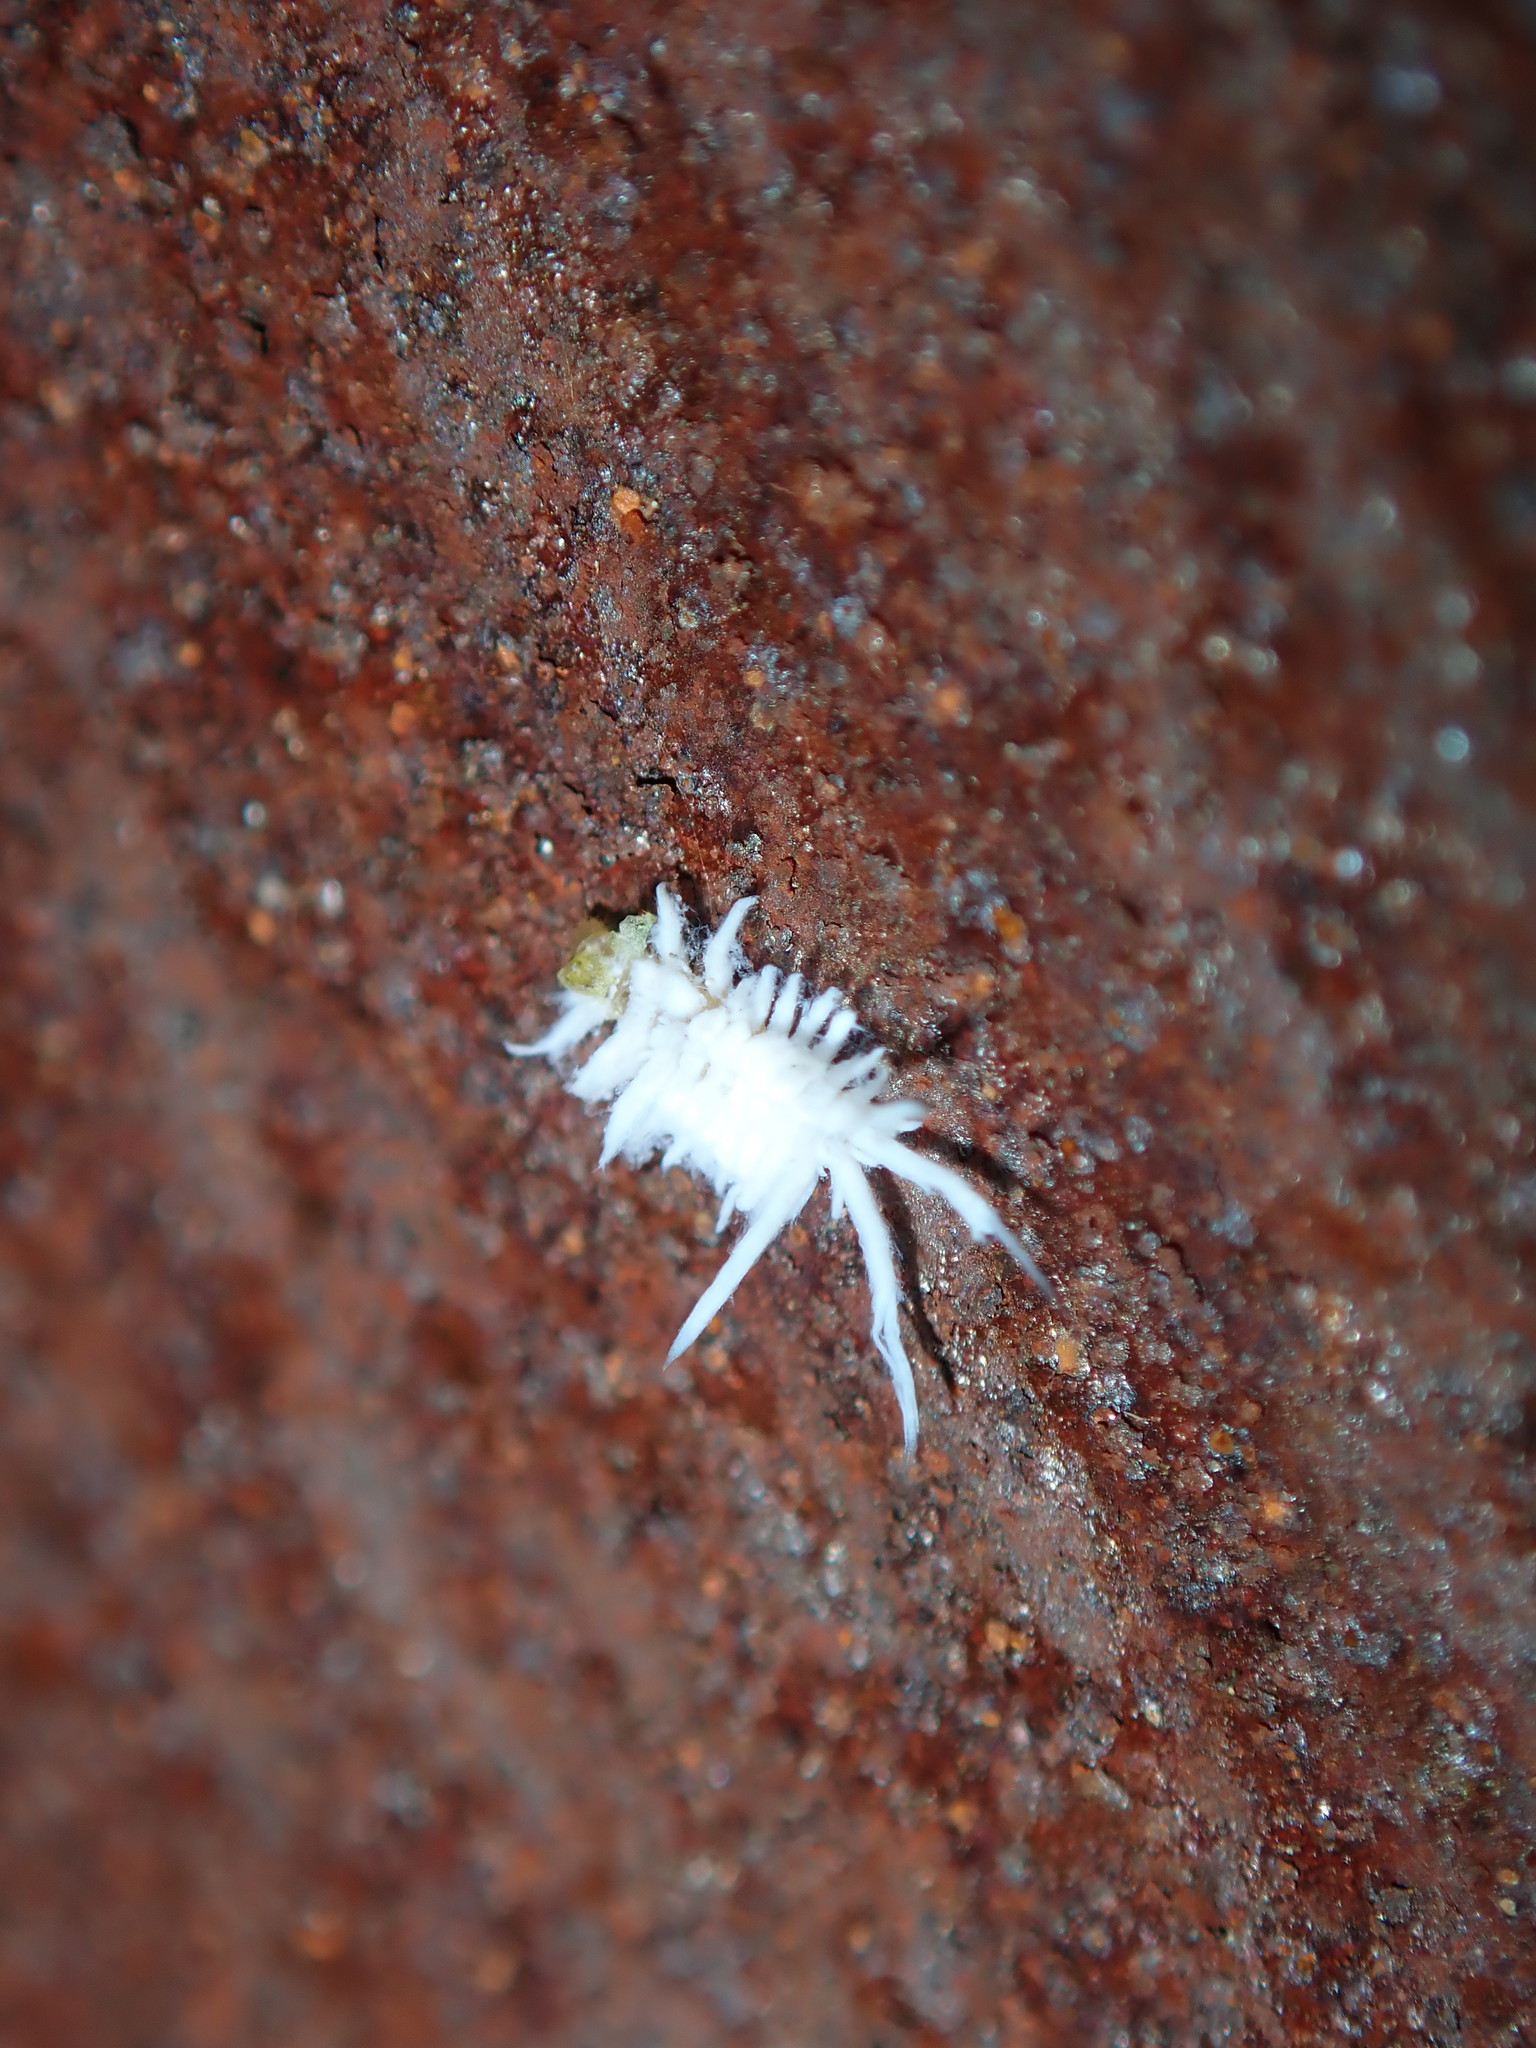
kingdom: Animalia
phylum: Arthropoda
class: Insecta
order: Coleoptera
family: Coccinellidae
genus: Cryptolaemus
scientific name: Cryptolaemus montrouzieri
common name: Mealybug destroyer
